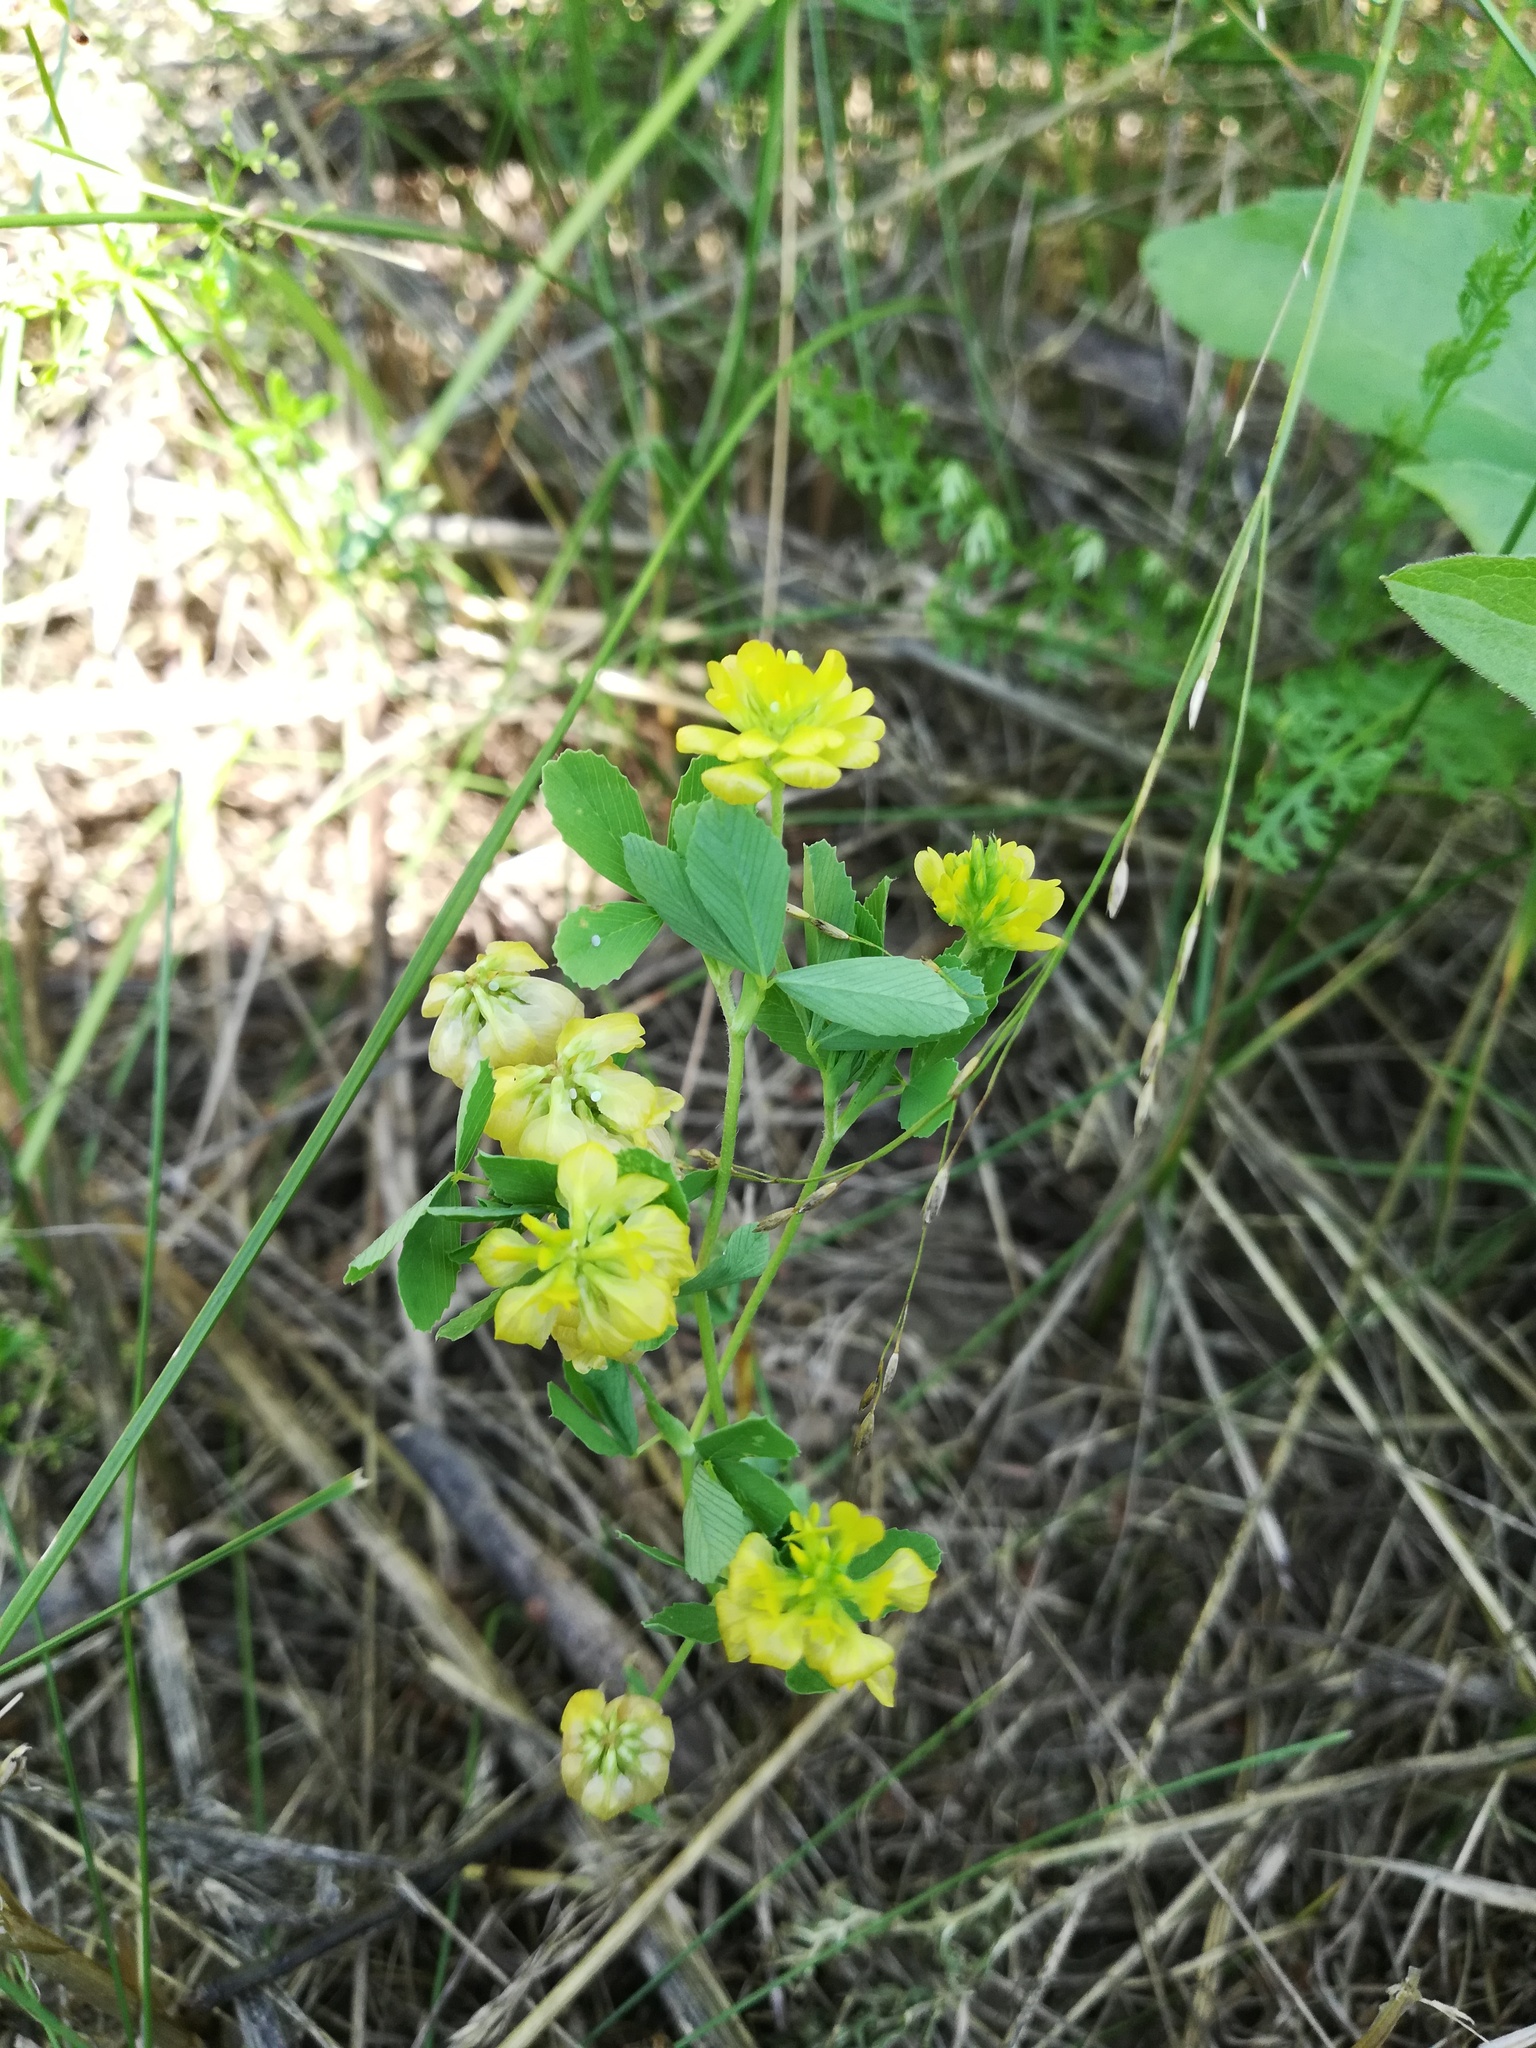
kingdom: Plantae
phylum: Tracheophyta
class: Magnoliopsida
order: Fabales
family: Fabaceae
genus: Trifolium
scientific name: Trifolium aureum
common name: Golden clover
